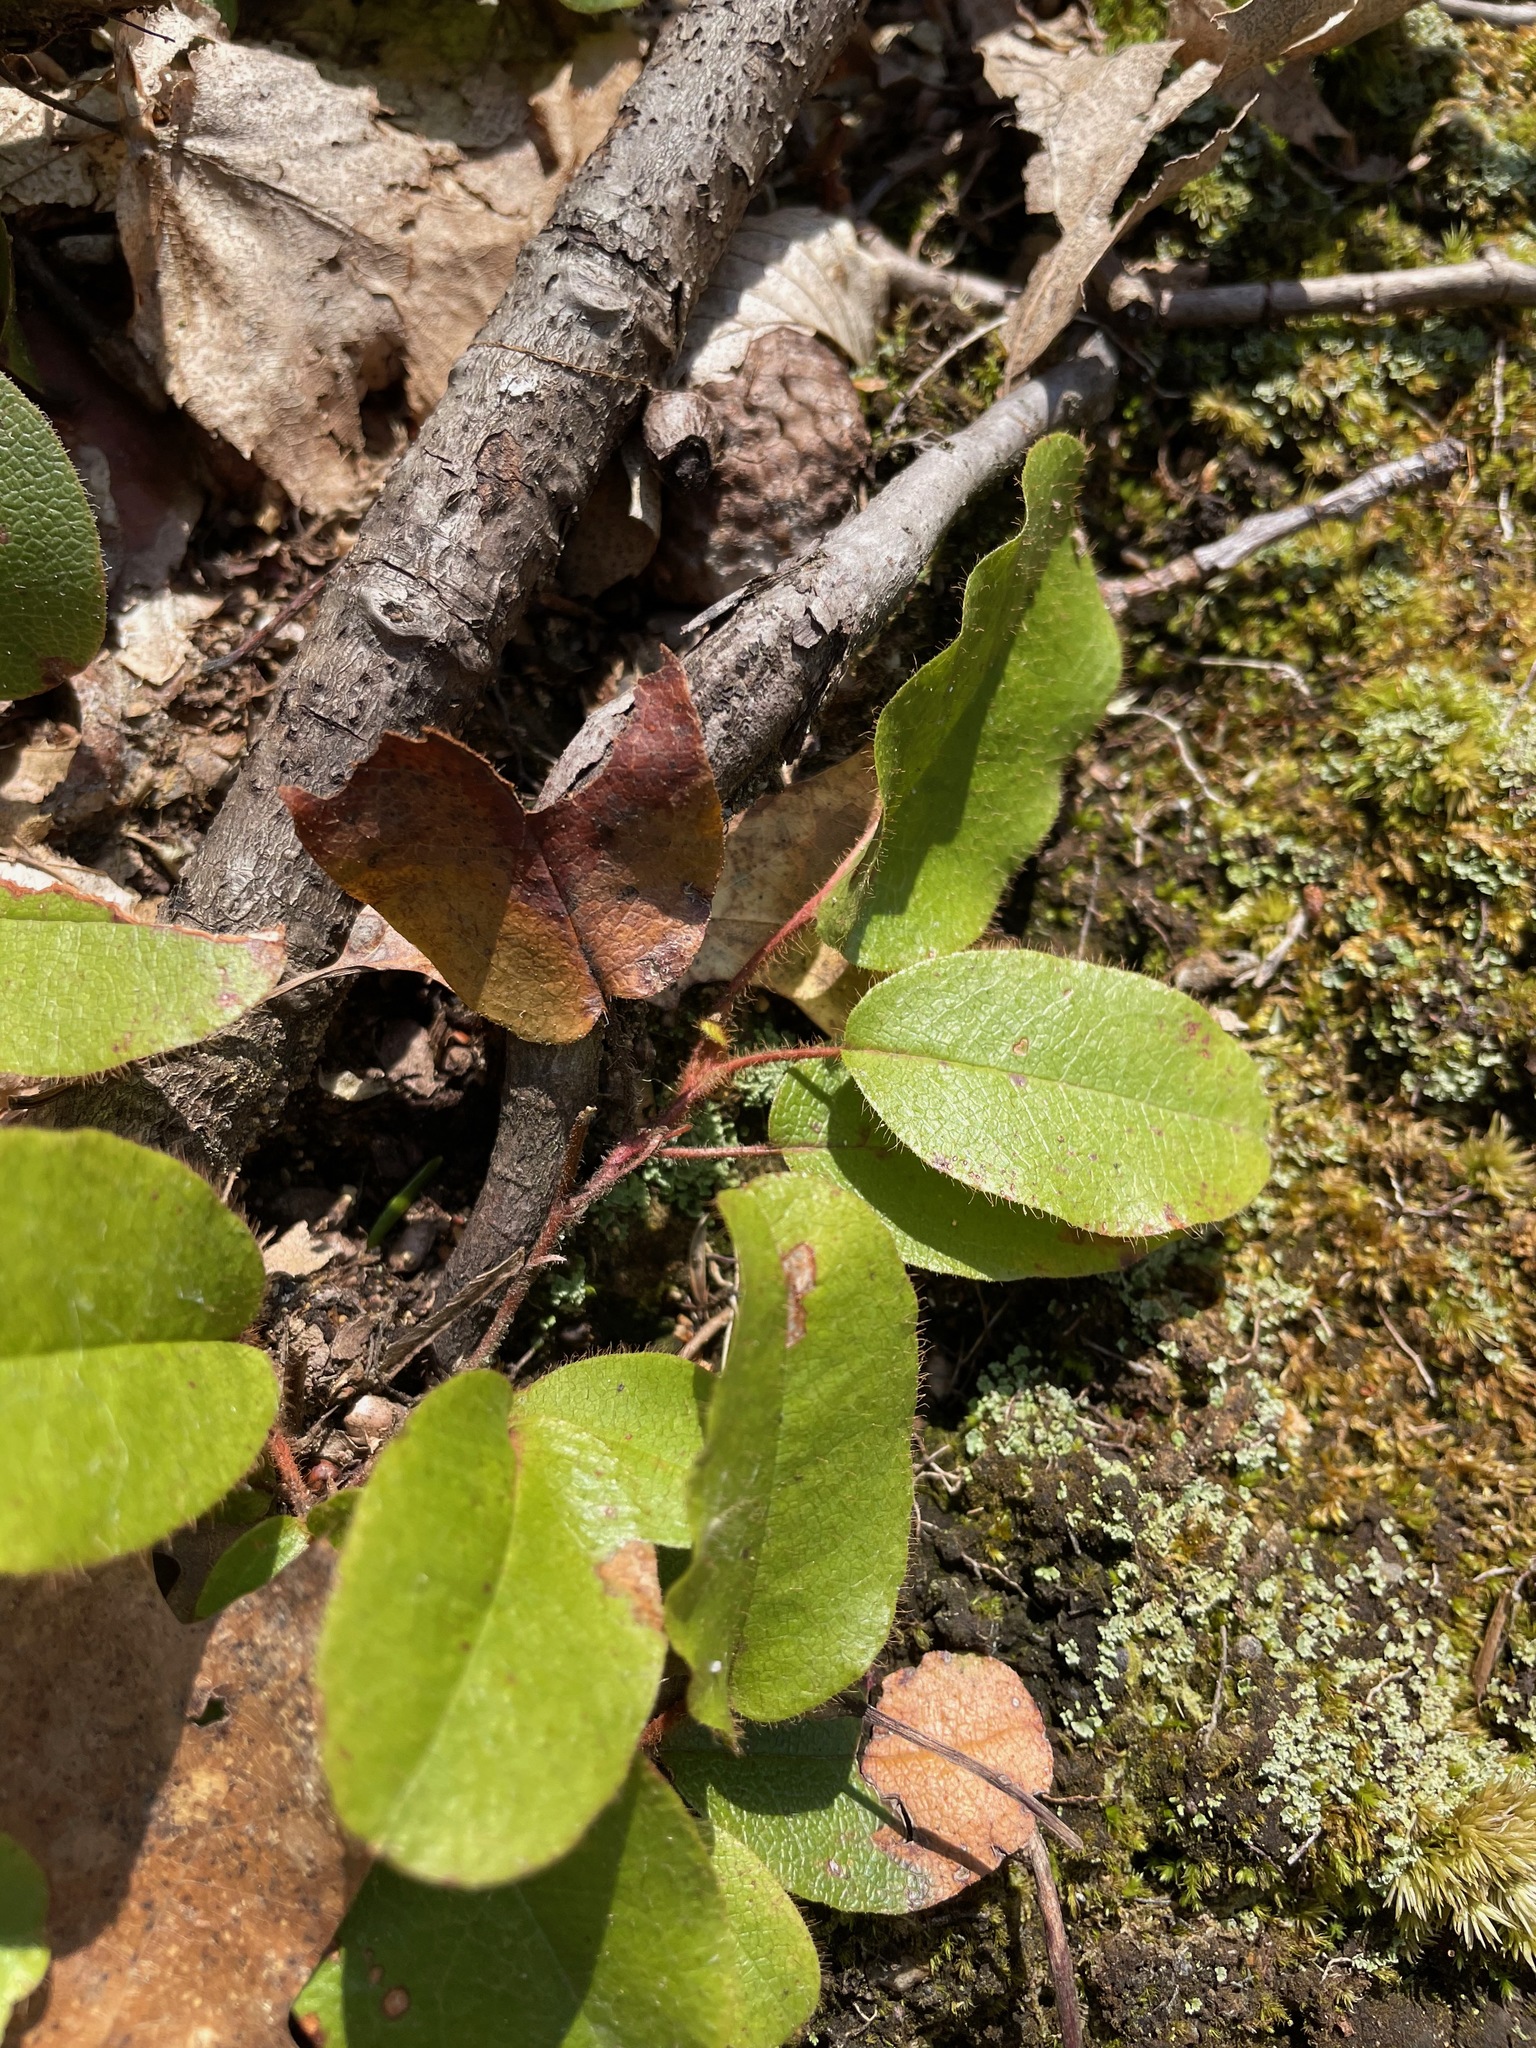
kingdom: Plantae
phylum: Tracheophyta
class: Magnoliopsida
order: Ericales
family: Ericaceae
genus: Epigaea
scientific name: Epigaea repens
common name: Gravelroot
